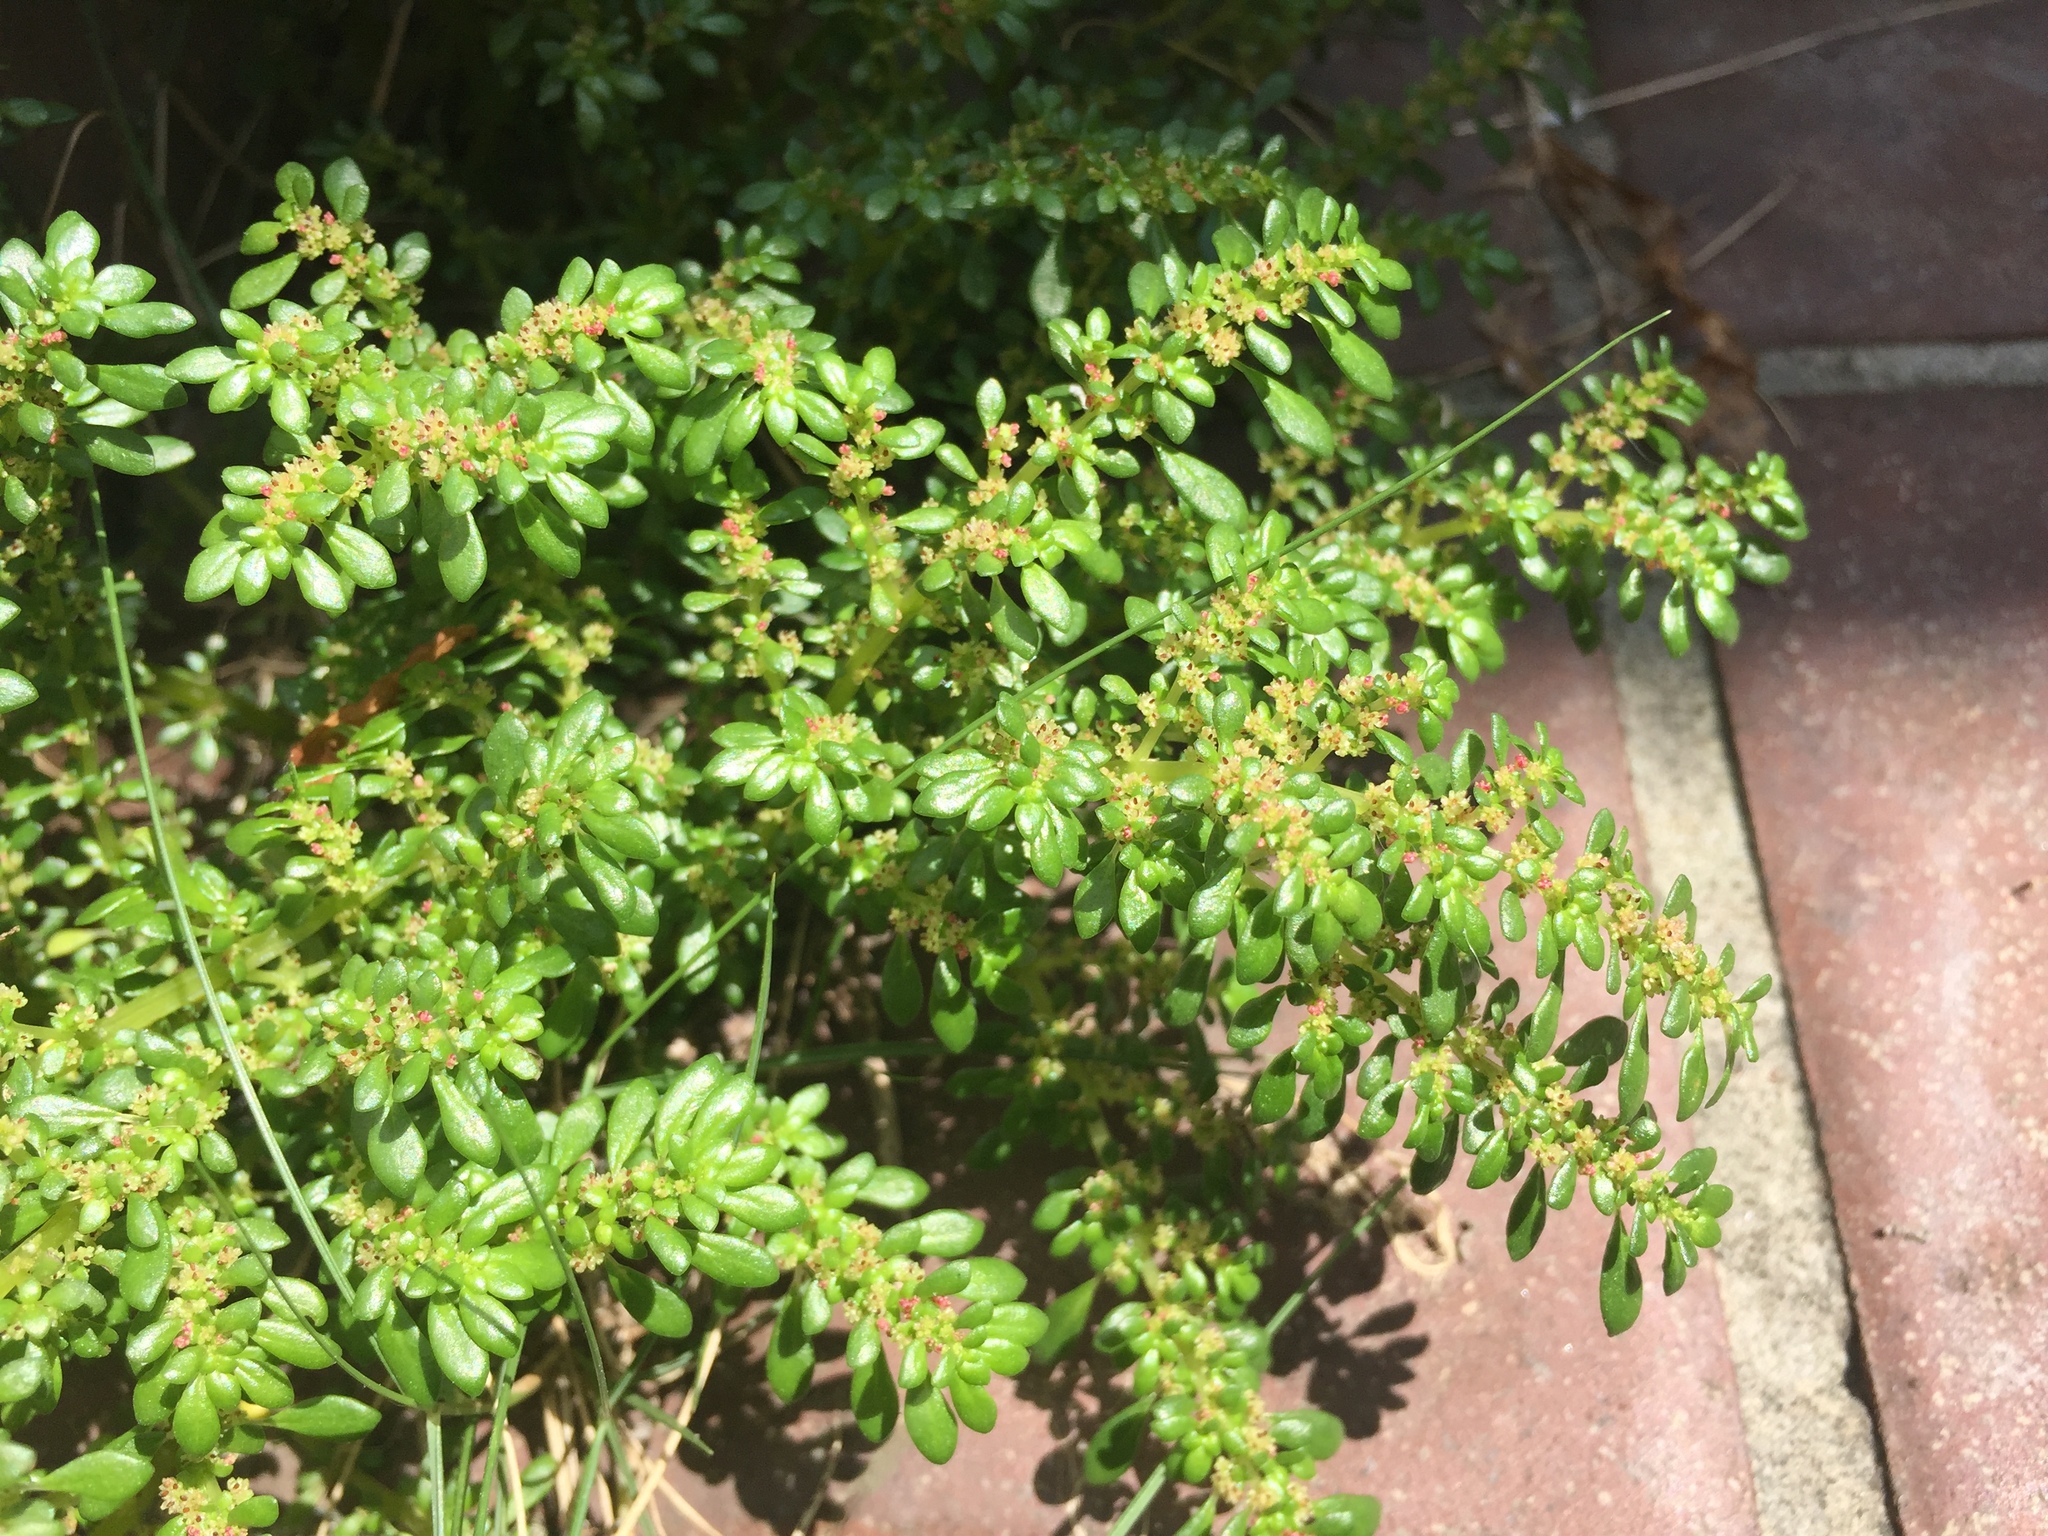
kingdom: Plantae
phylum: Tracheophyta
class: Magnoliopsida
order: Rosales
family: Urticaceae
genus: Pilea
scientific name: Pilea microphylla
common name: Artillery-plant
